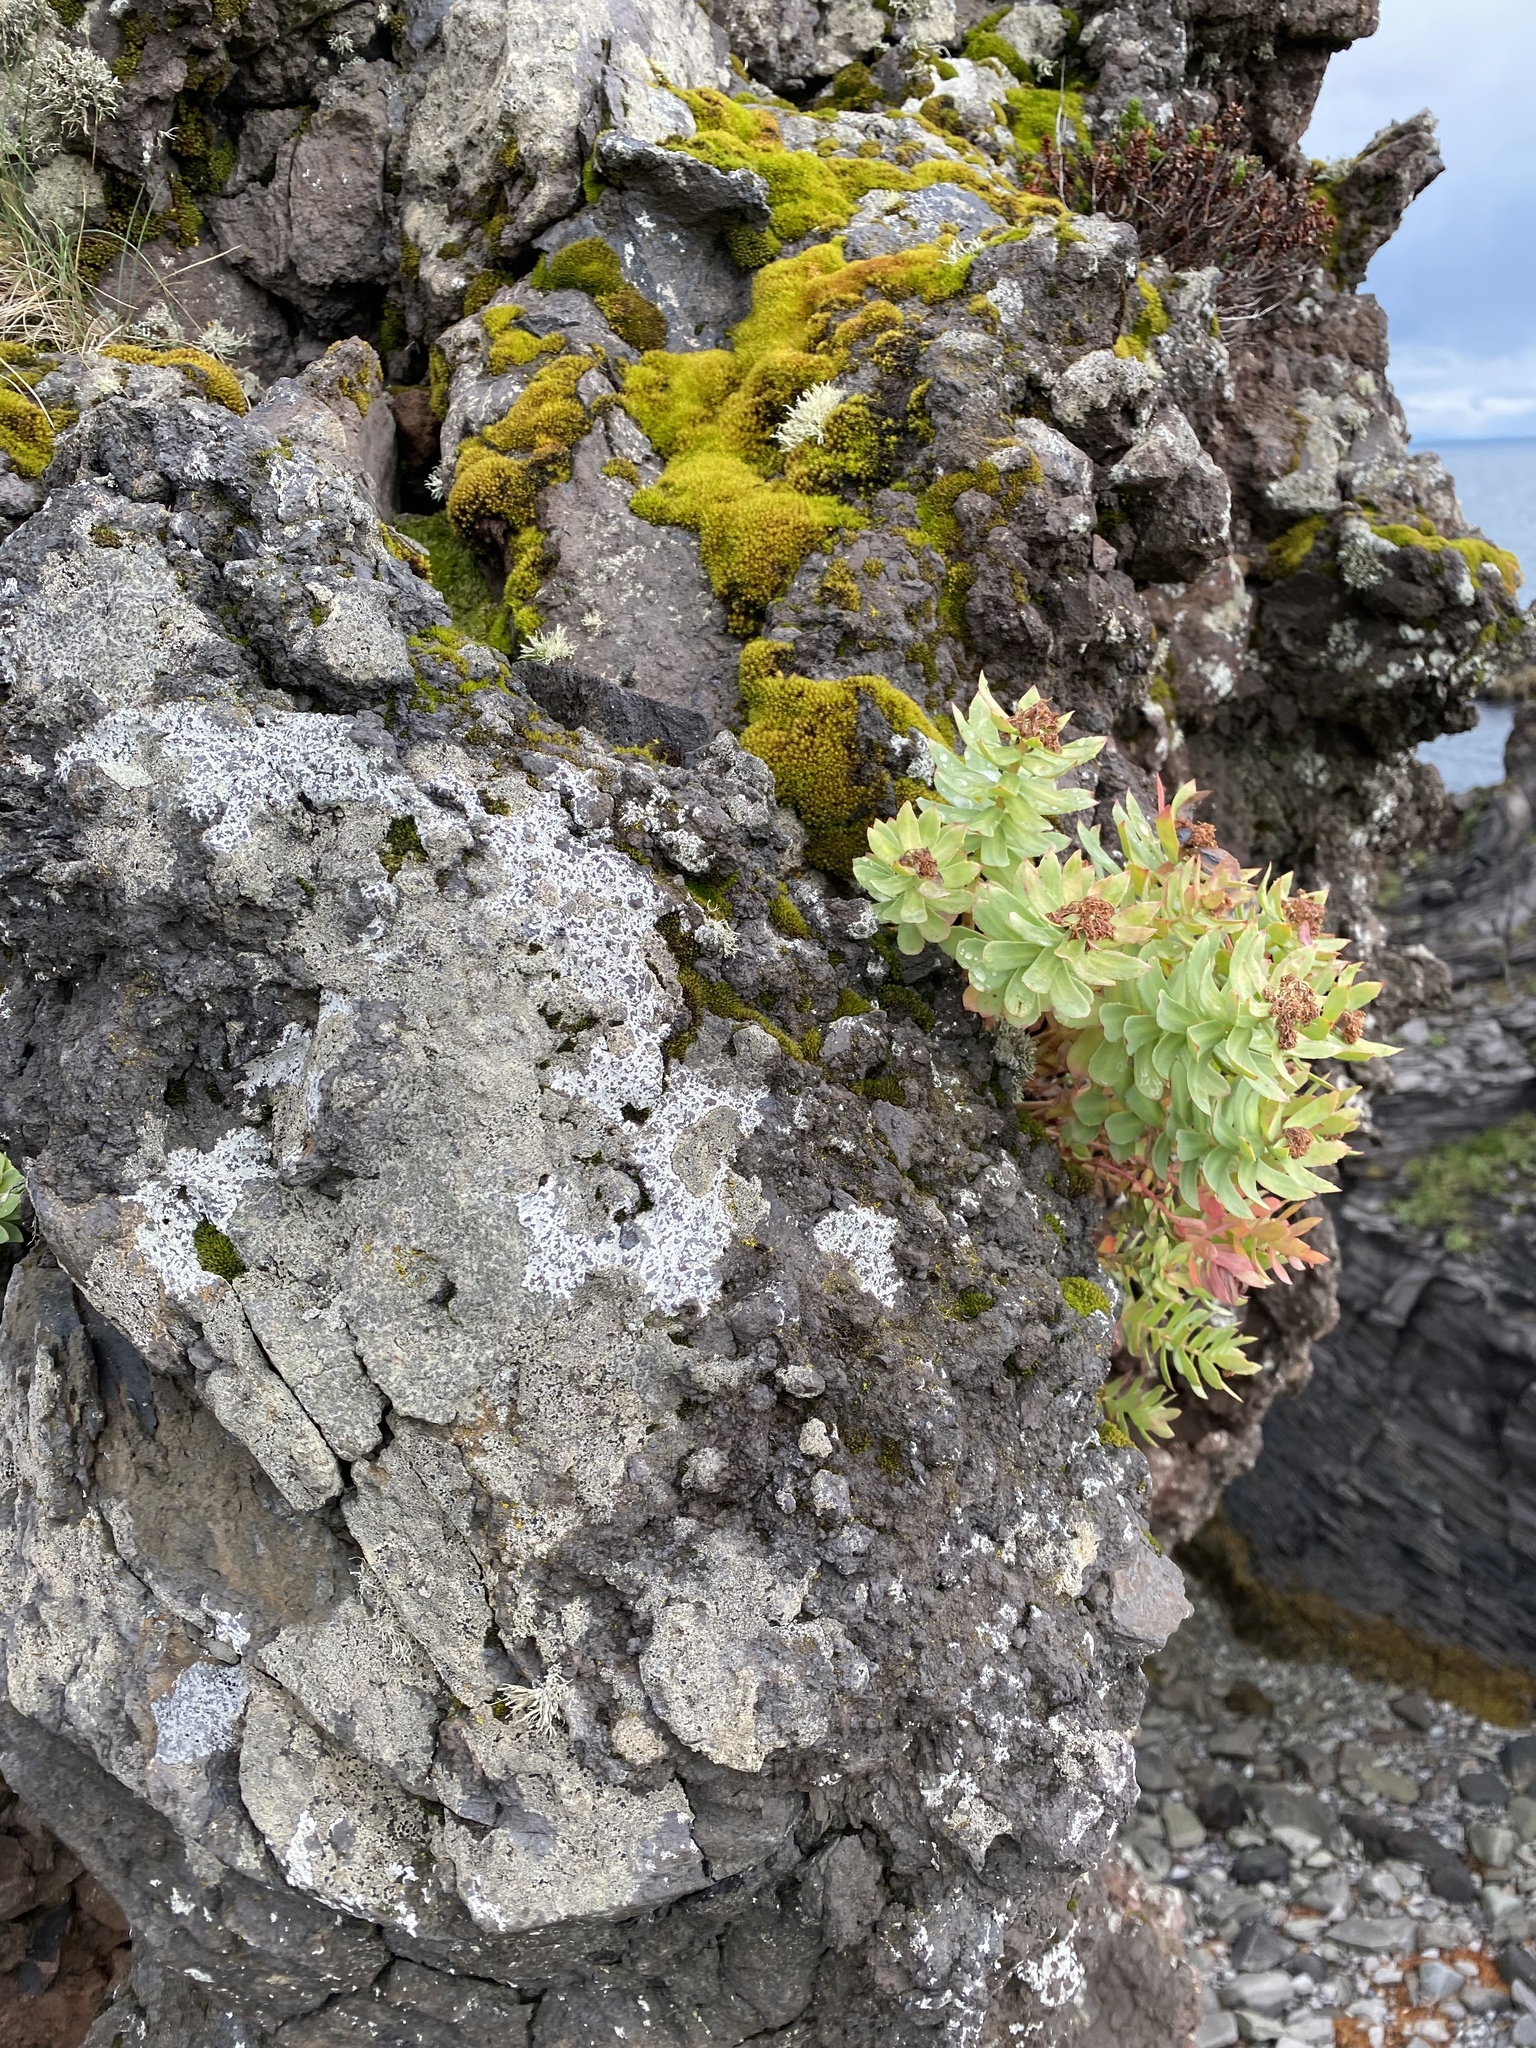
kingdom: Plantae
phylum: Tracheophyta
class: Magnoliopsida
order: Saxifragales
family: Crassulaceae
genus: Rhodiola
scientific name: Rhodiola rosea
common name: Roseroot
